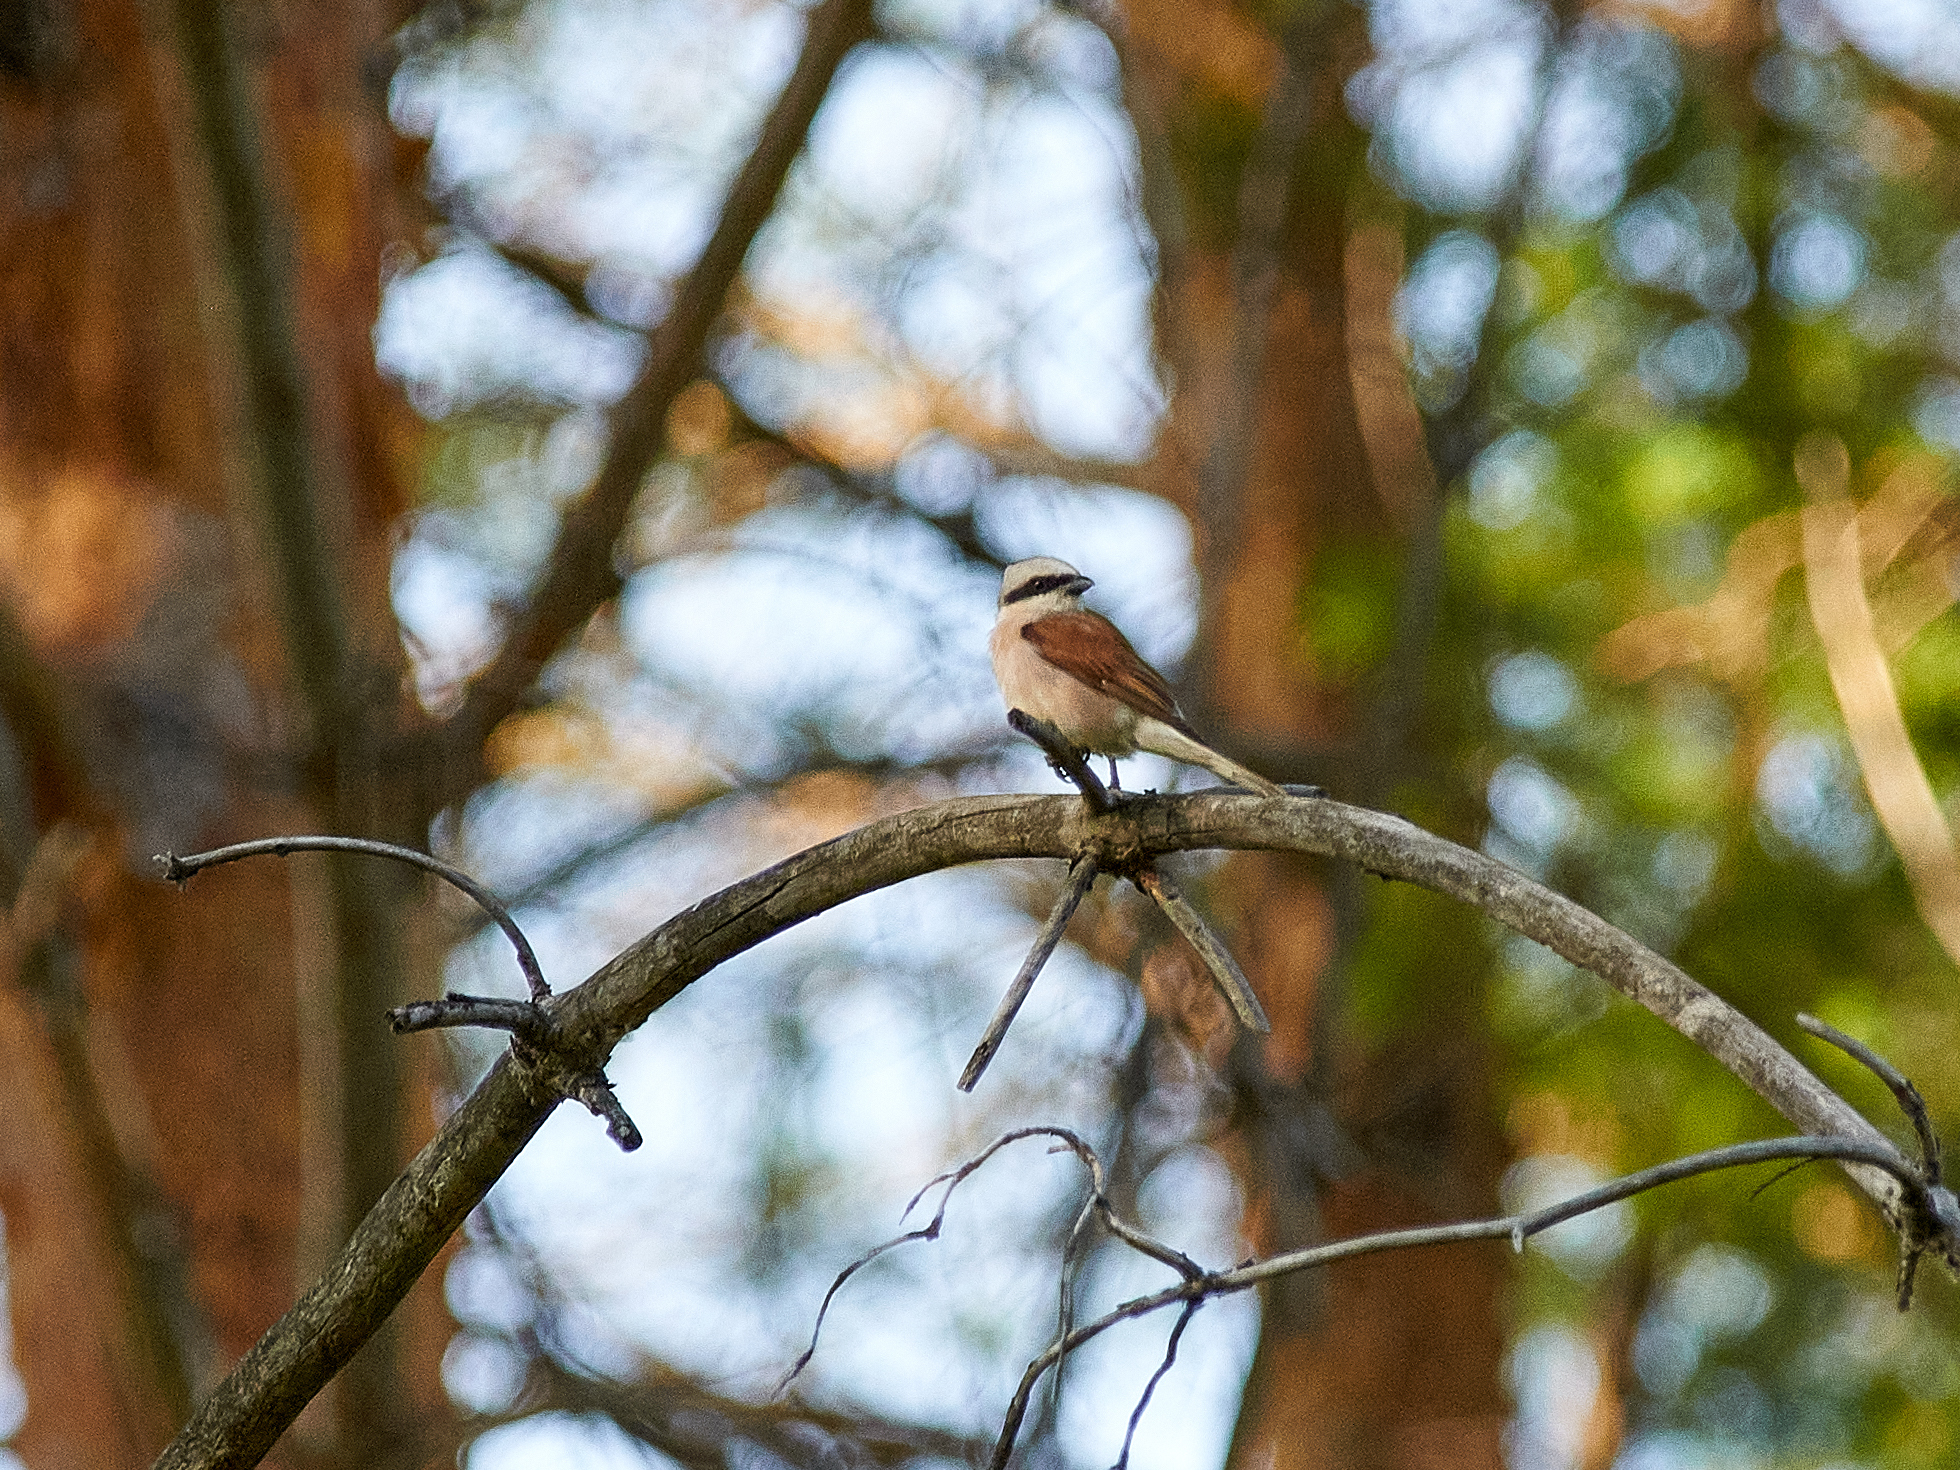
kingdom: Animalia
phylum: Chordata
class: Aves
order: Passeriformes
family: Laniidae
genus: Lanius
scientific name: Lanius collurio
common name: Red-backed shrike
